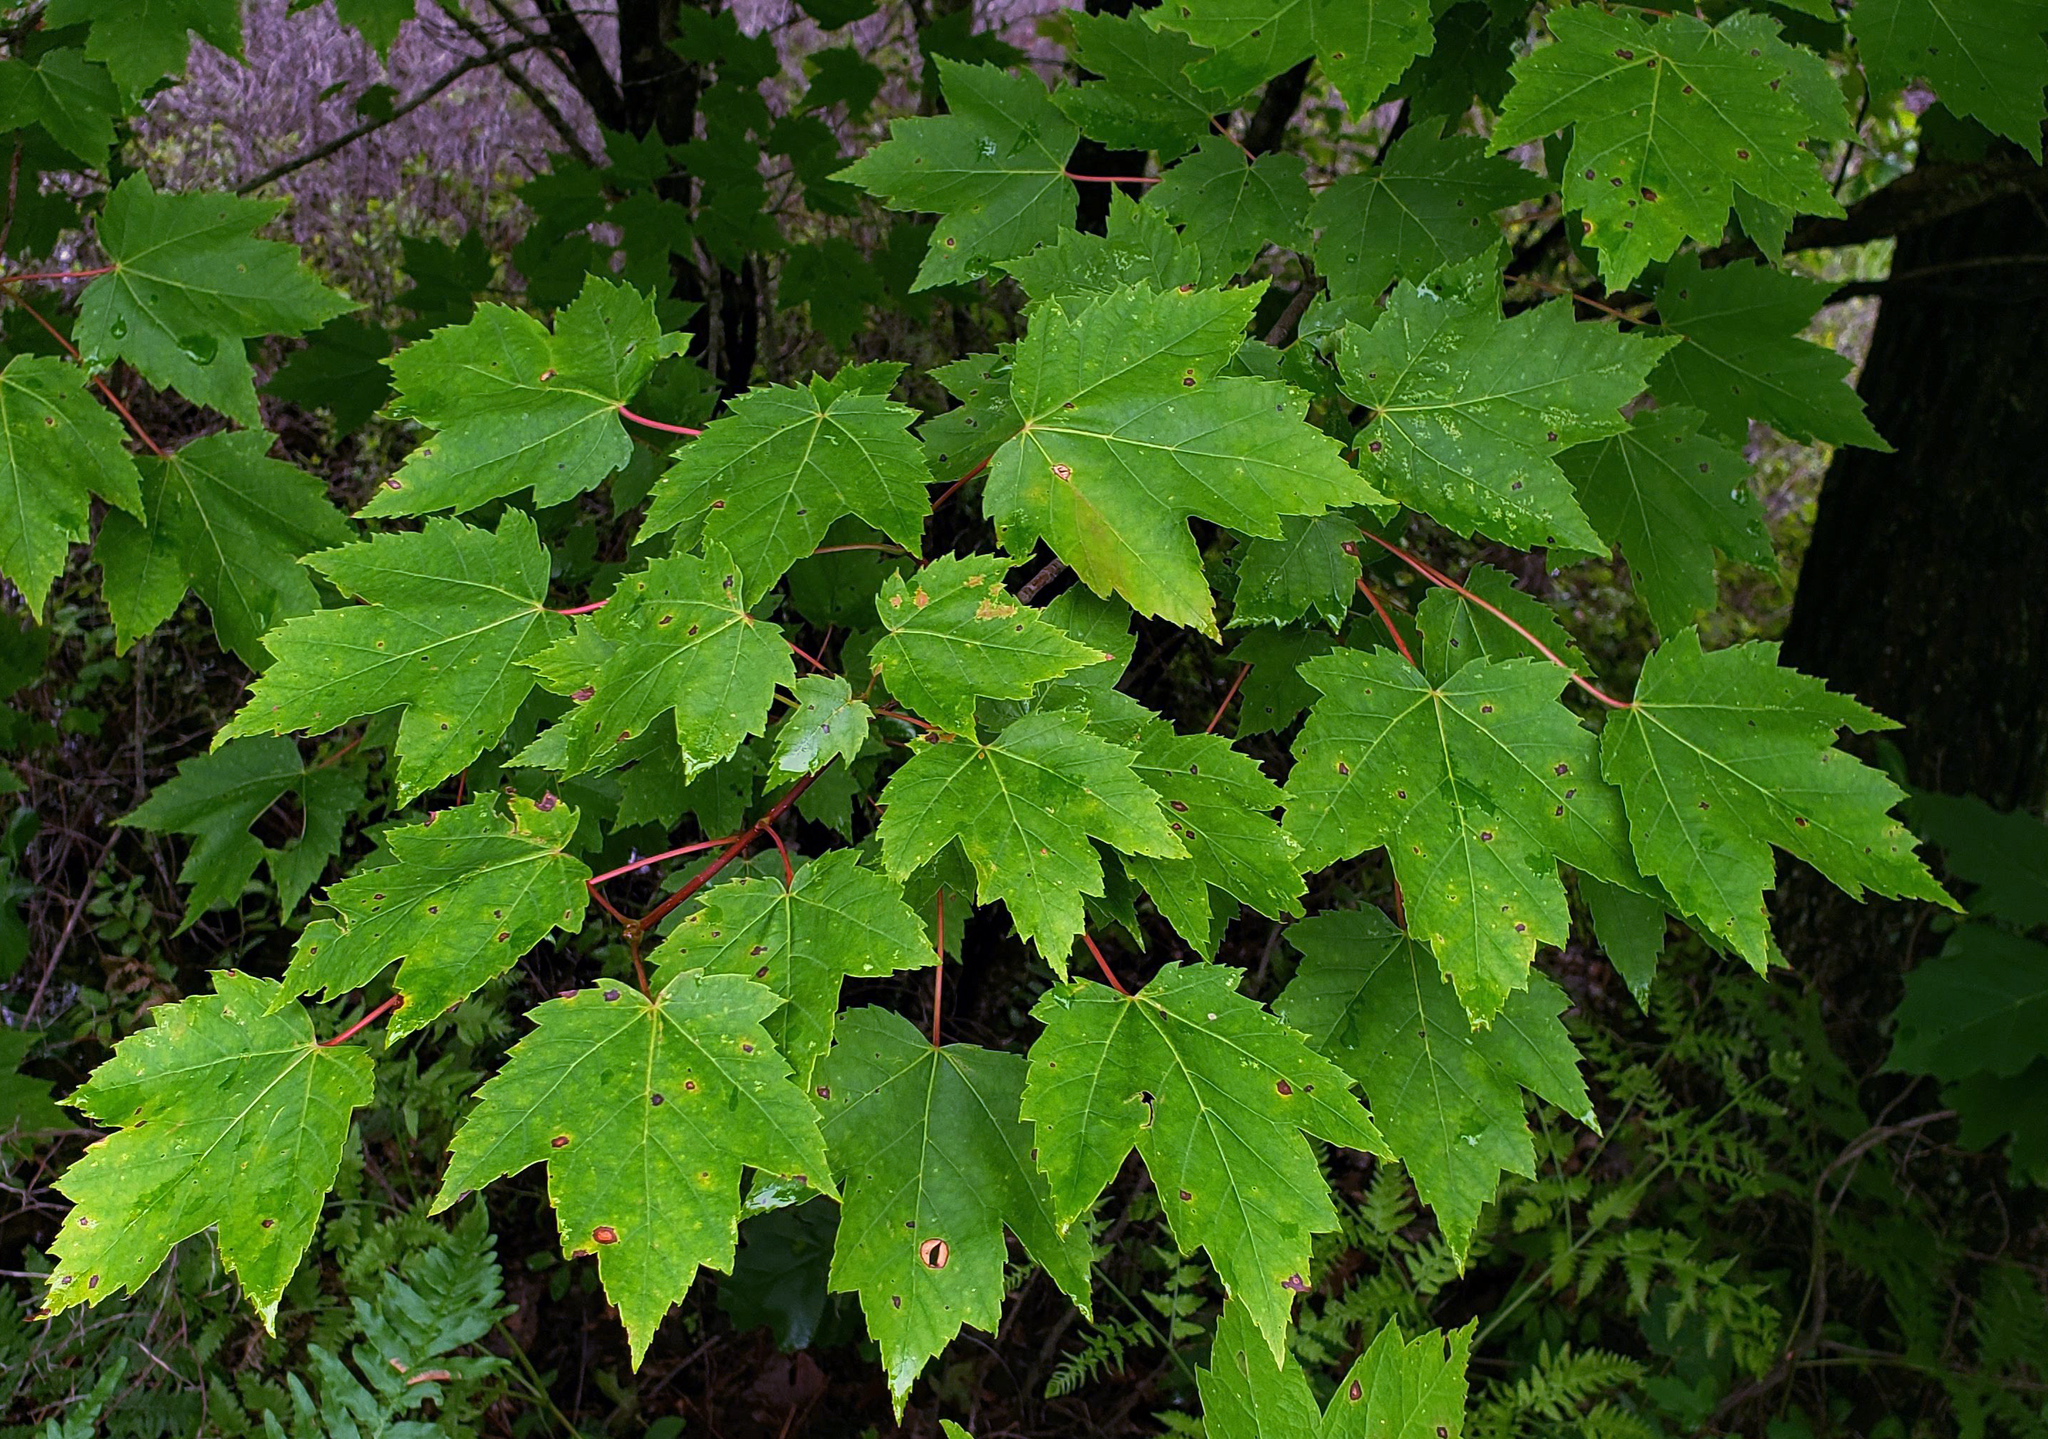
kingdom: Plantae
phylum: Tracheophyta
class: Magnoliopsida
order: Sapindales
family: Sapindaceae
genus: Acer
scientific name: Acer rubrum
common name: Red maple
